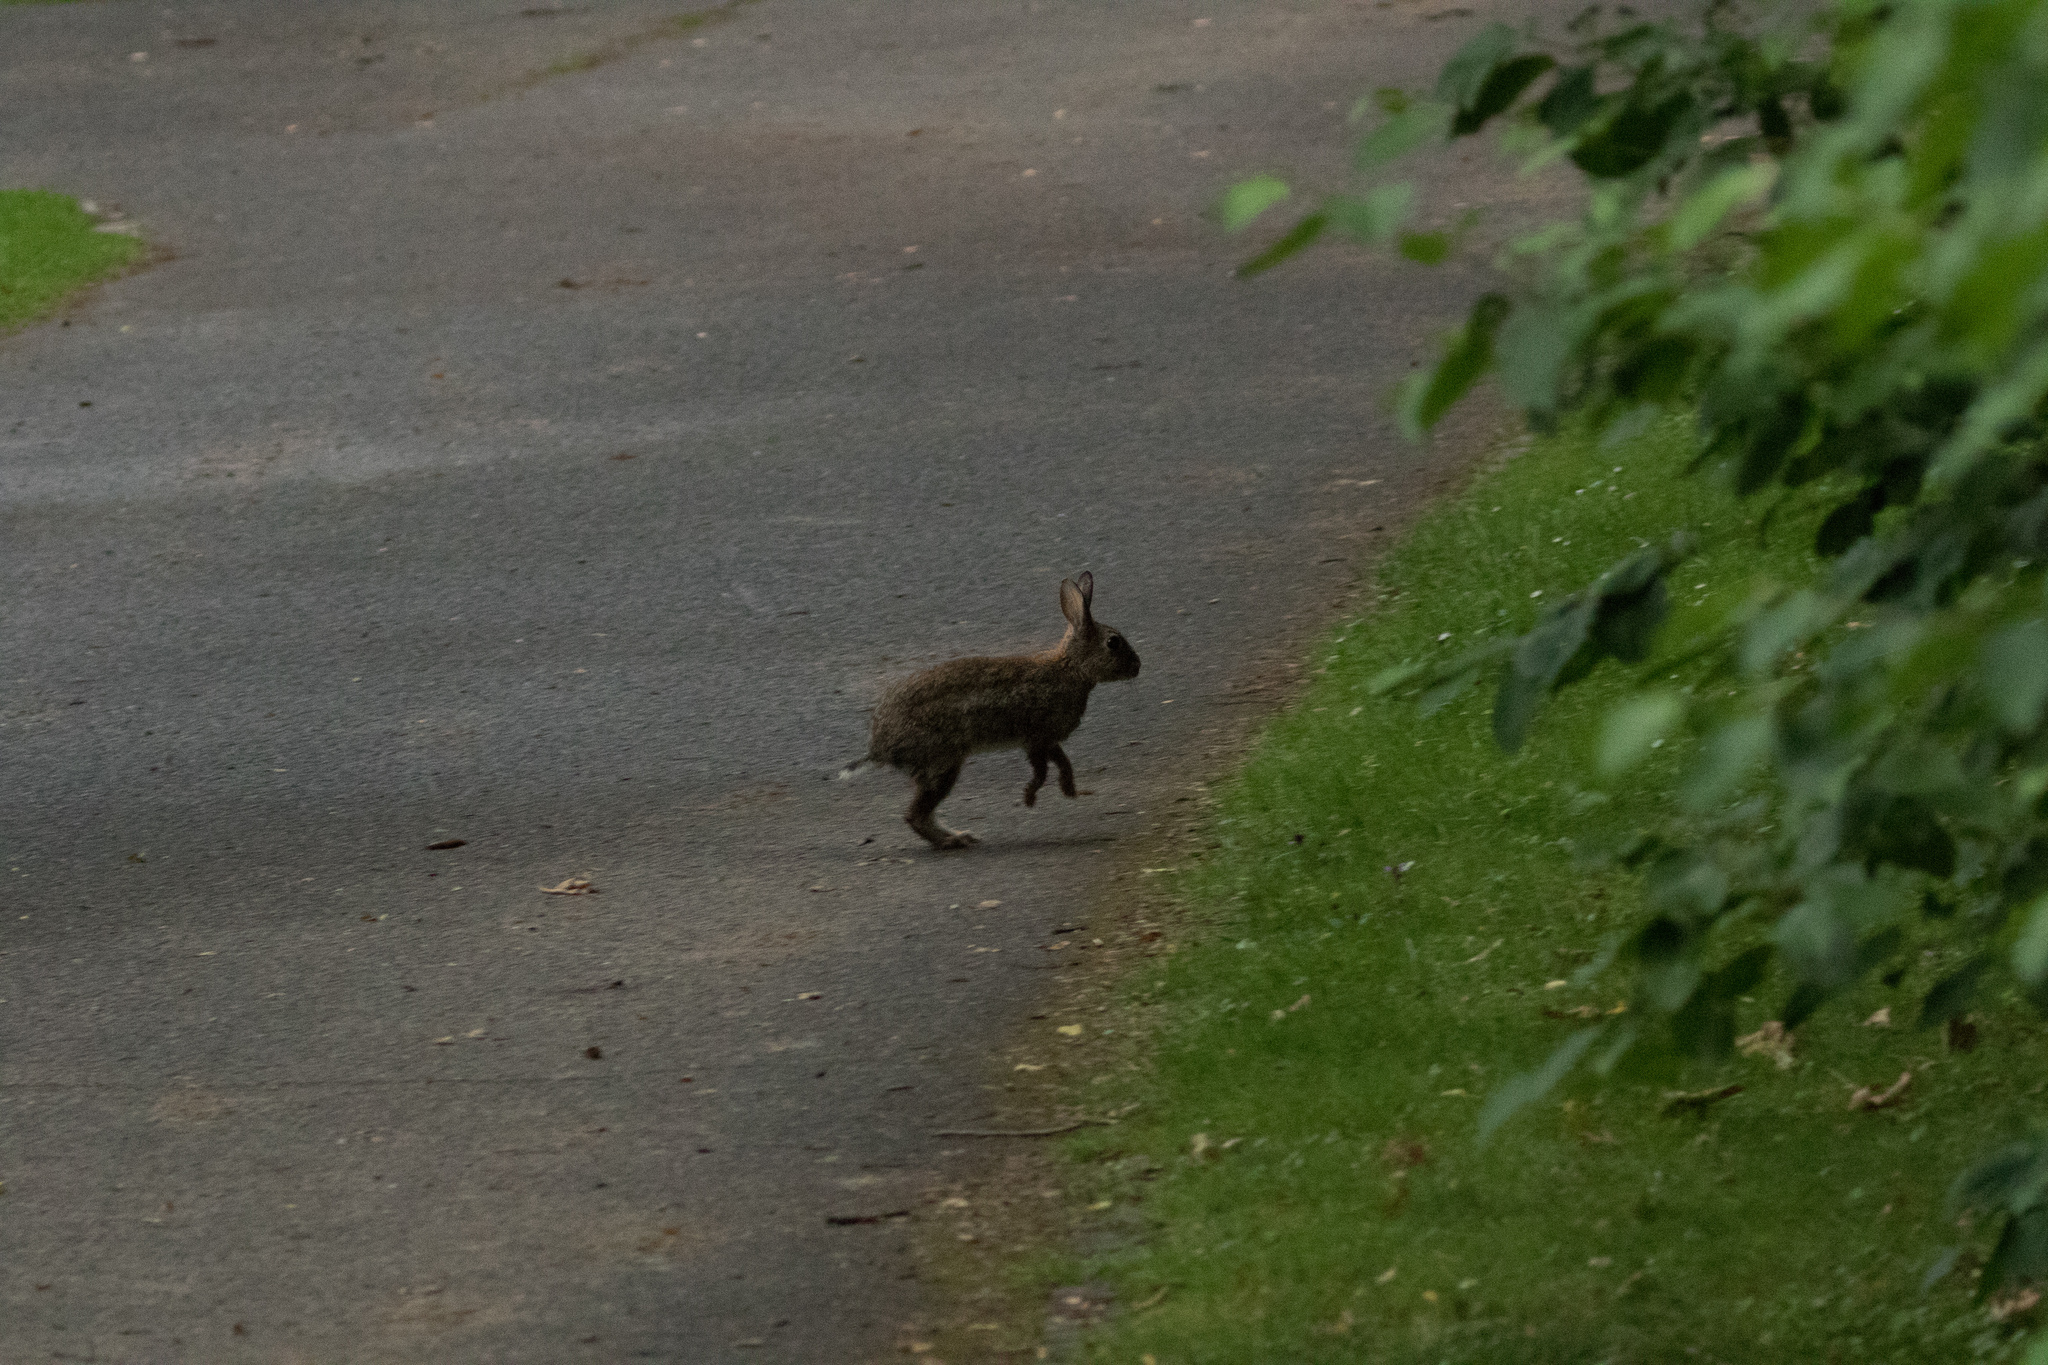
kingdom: Animalia
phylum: Chordata
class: Mammalia
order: Lagomorpha
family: Leporidae
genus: Oryctolagus
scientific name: Oryctolagus cuniculus
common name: European rabbit
